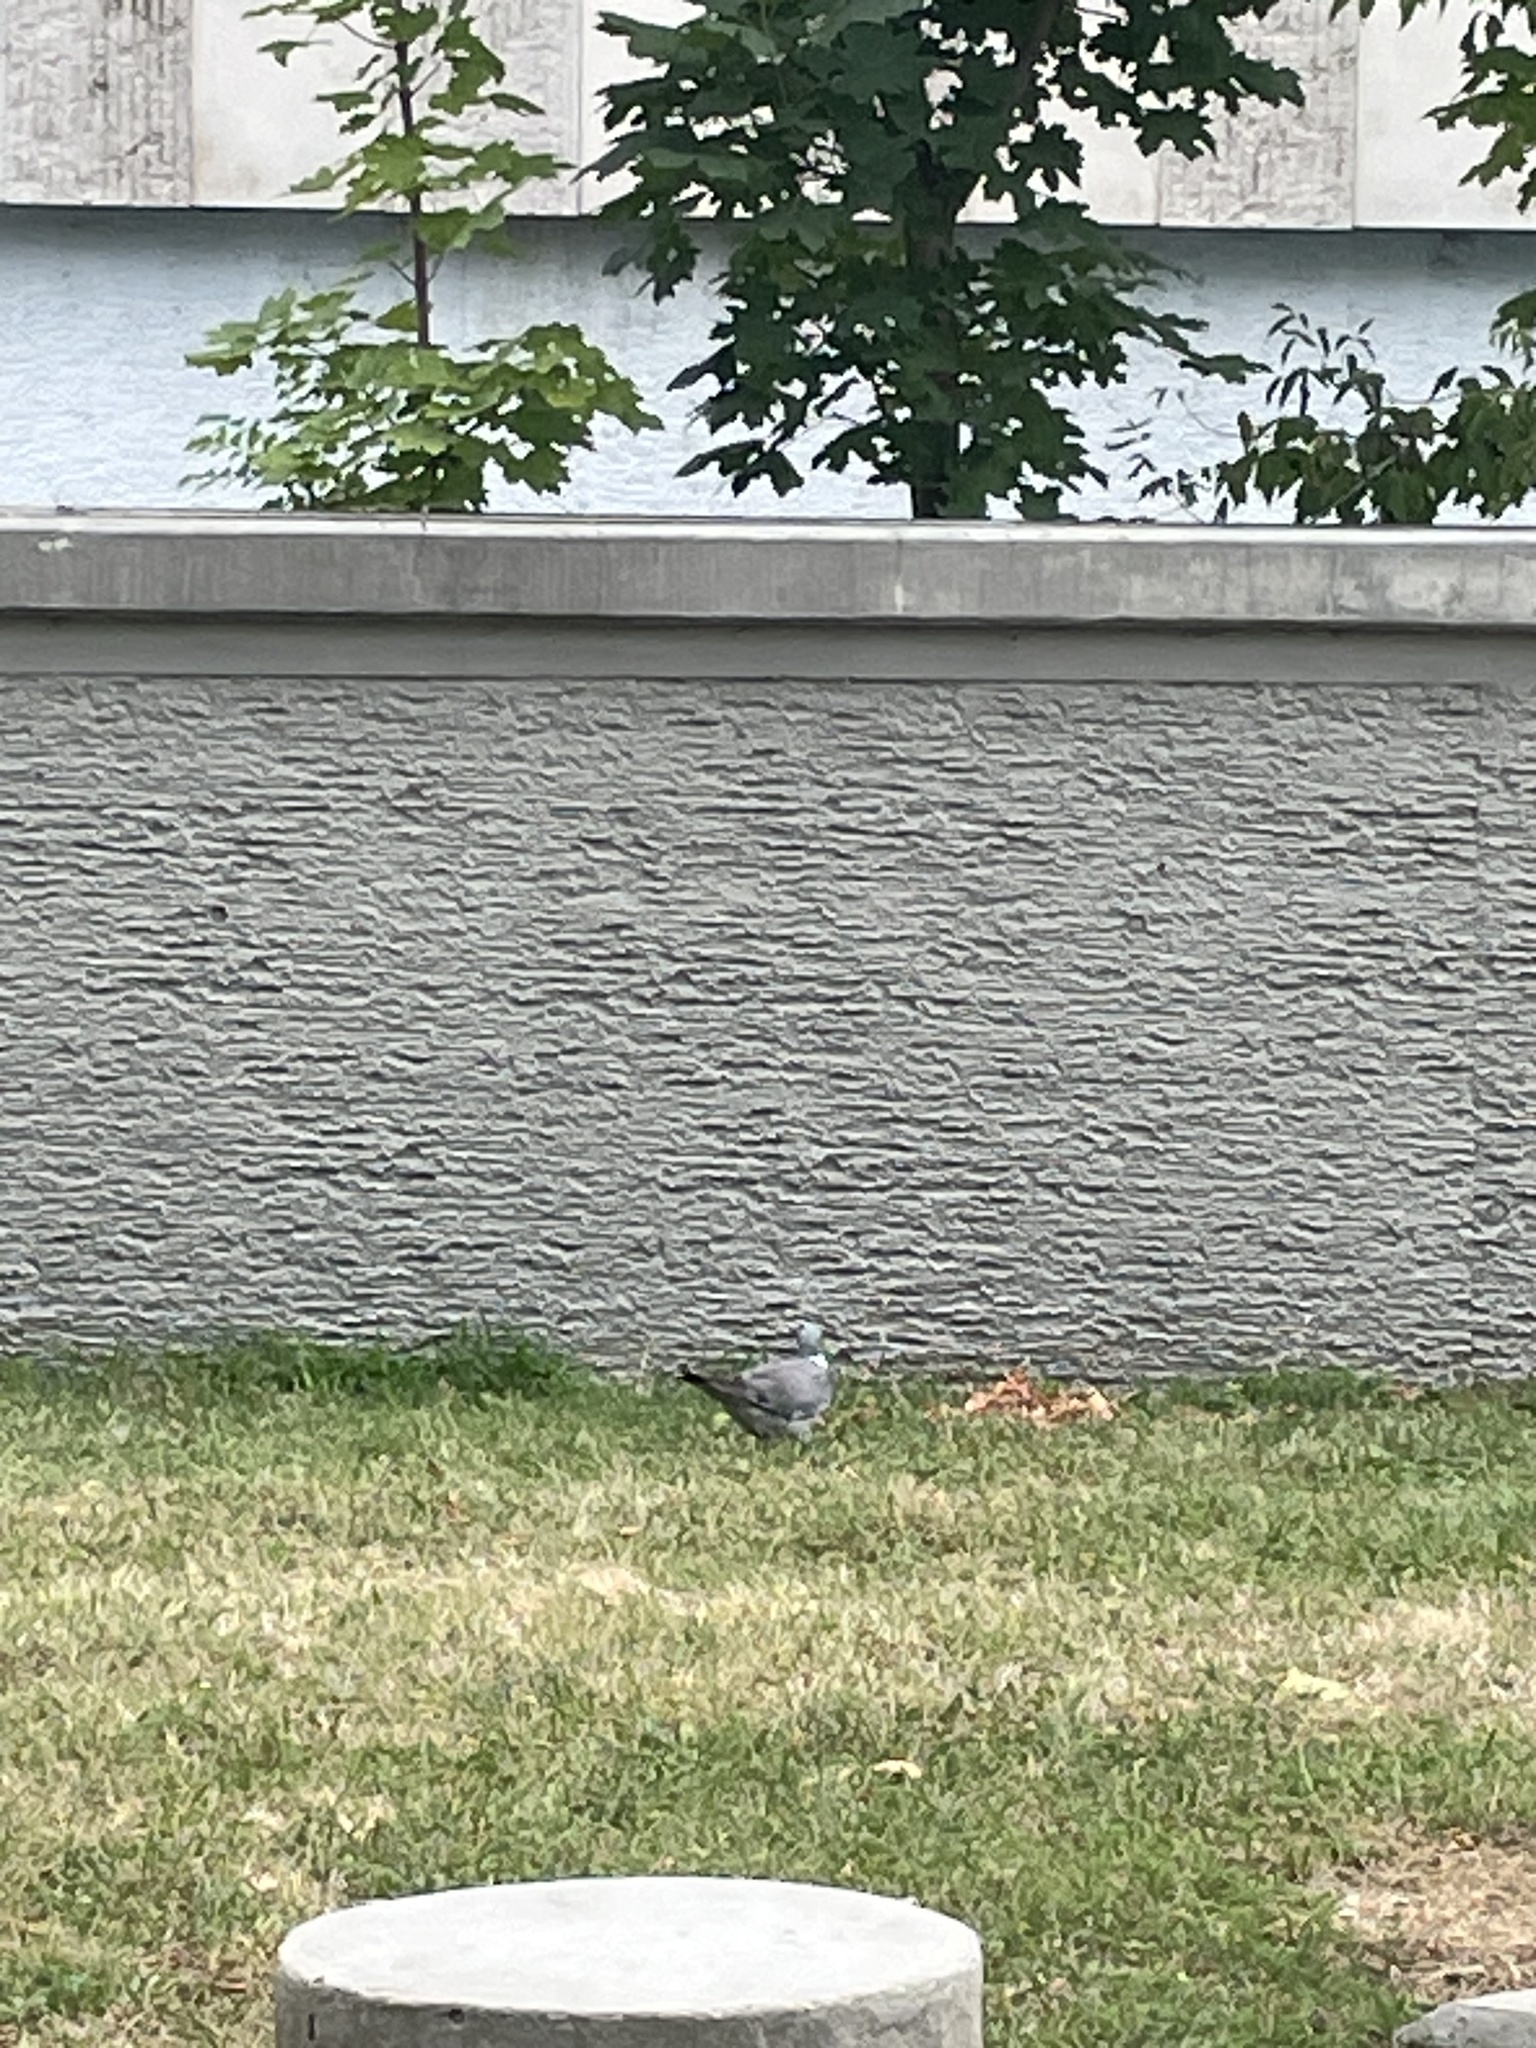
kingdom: Animalia
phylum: Chordata
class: Aves
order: Columbiformes
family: Columbidae
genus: Columba
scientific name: Columba palumbus
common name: Common wood pigeon
